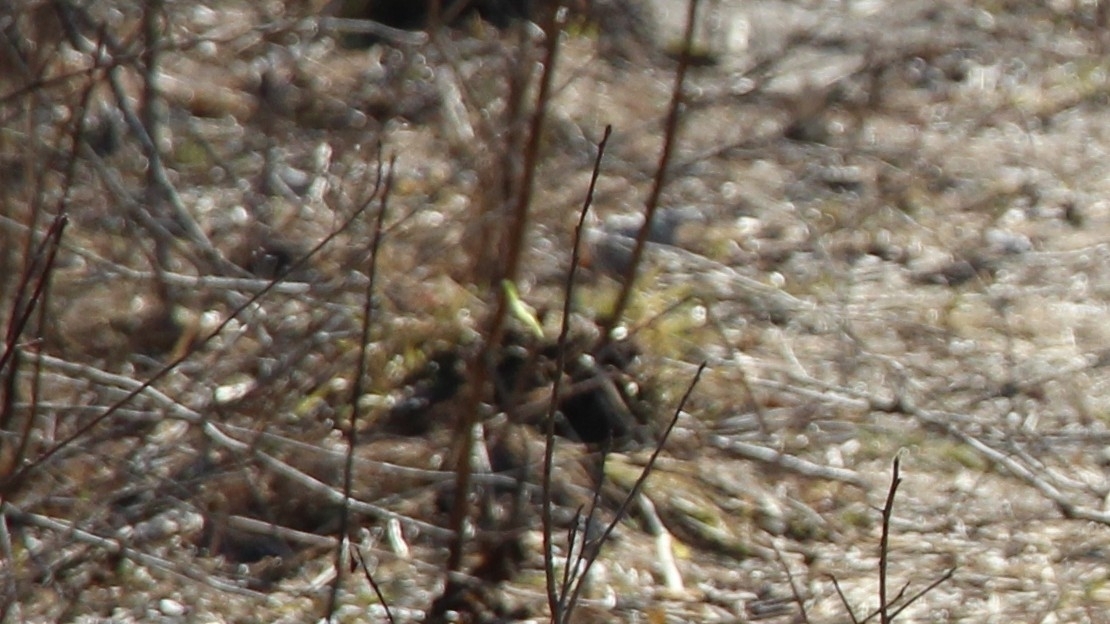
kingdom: Animalia
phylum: Arthropoda
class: Insecta
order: Lepidoptera
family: Pieridae
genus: Gonepteryx
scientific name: Gonepteryx rhamni
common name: Brimstone
